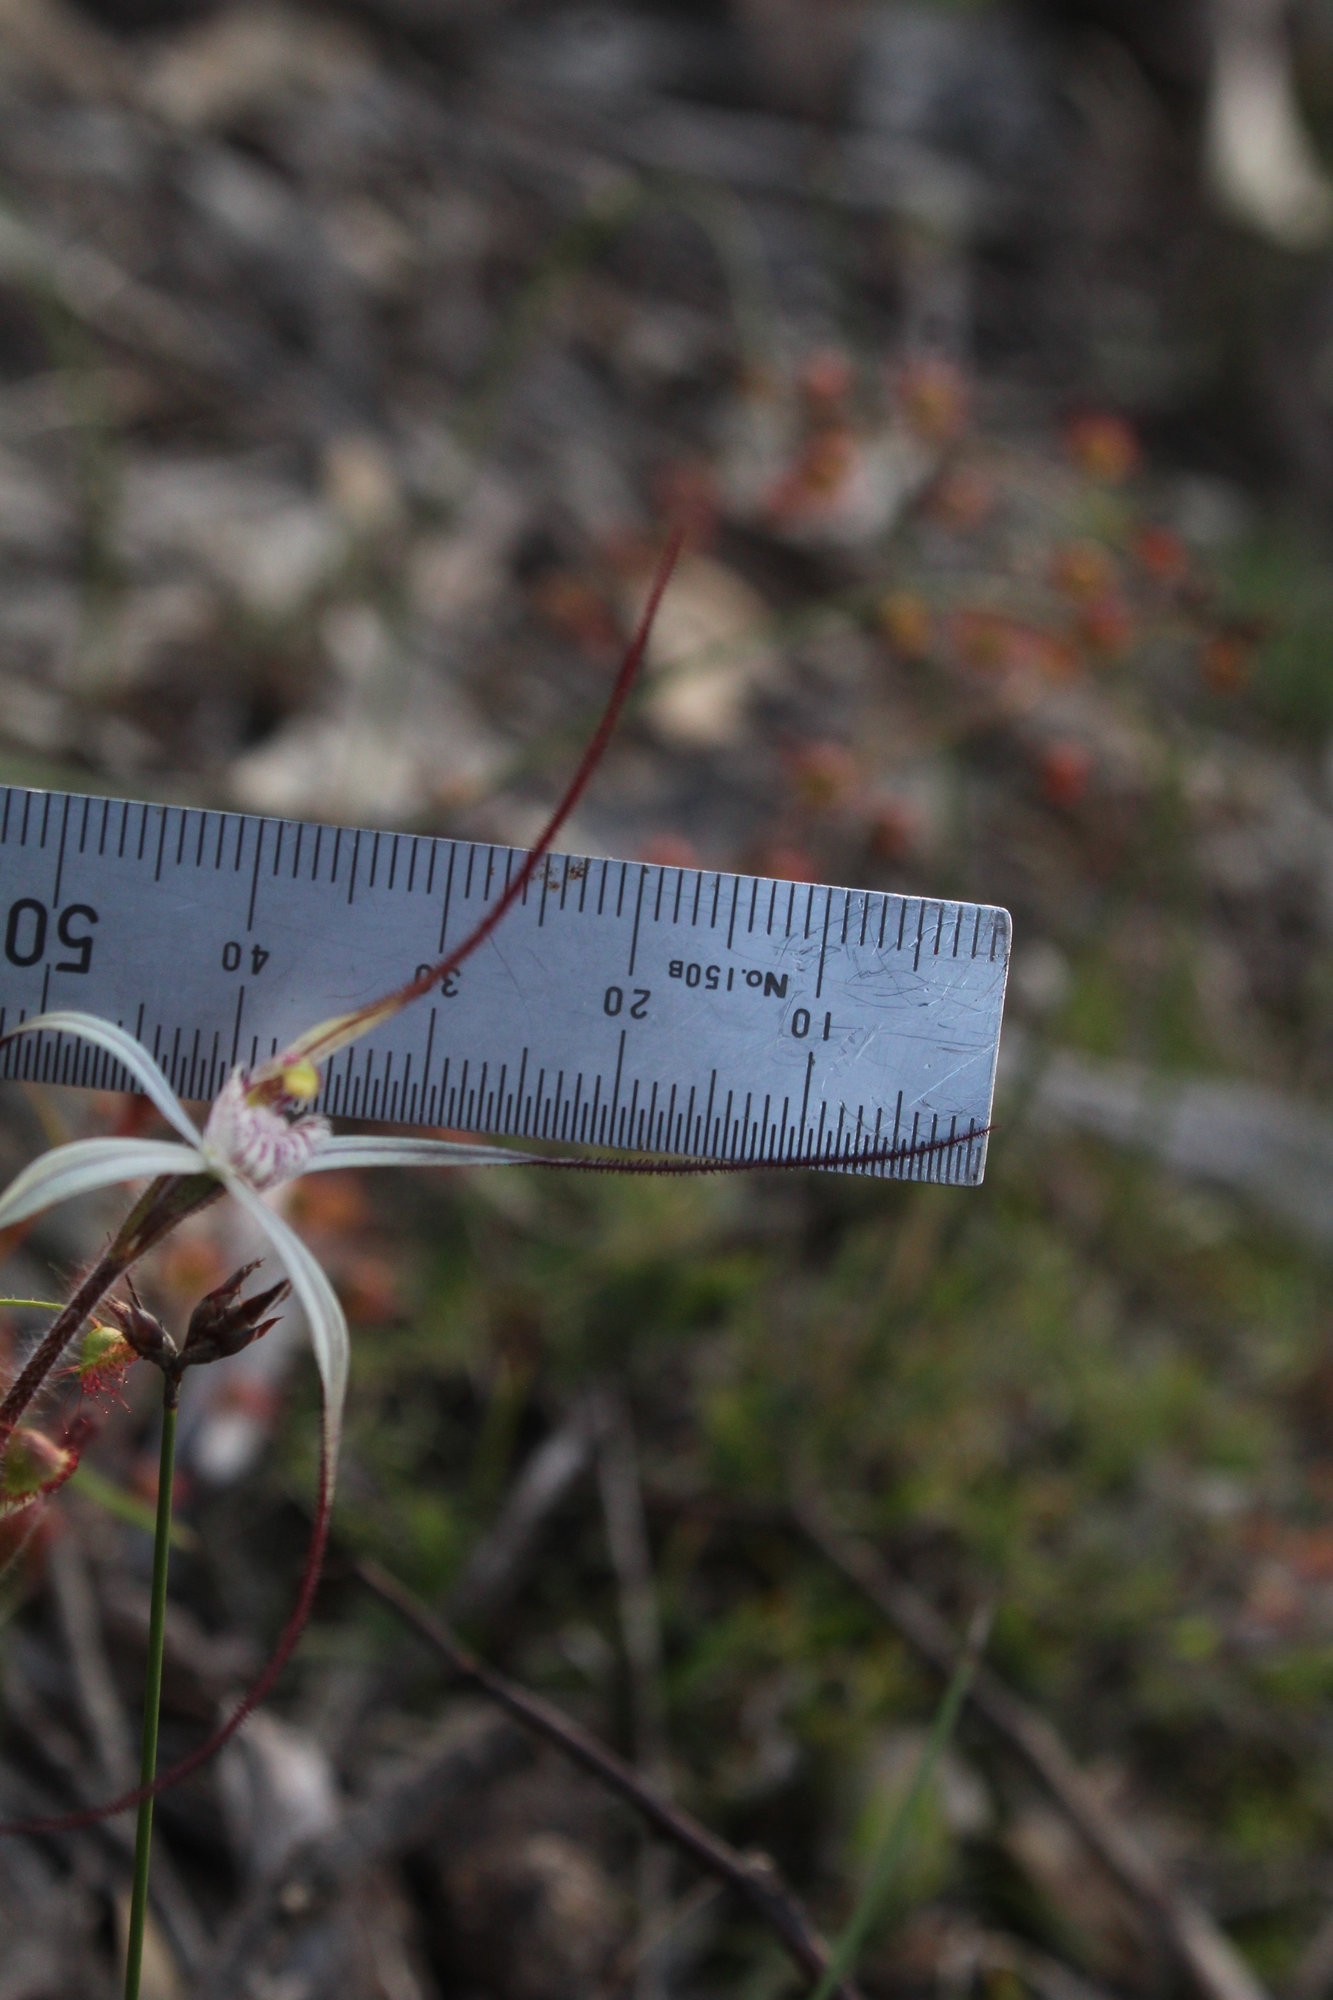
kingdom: Plantae
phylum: Tracheophyta
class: Liliopsida
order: Asparagales
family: Orchidaceae
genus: Caladenia
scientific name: Caladenia hiemalis
